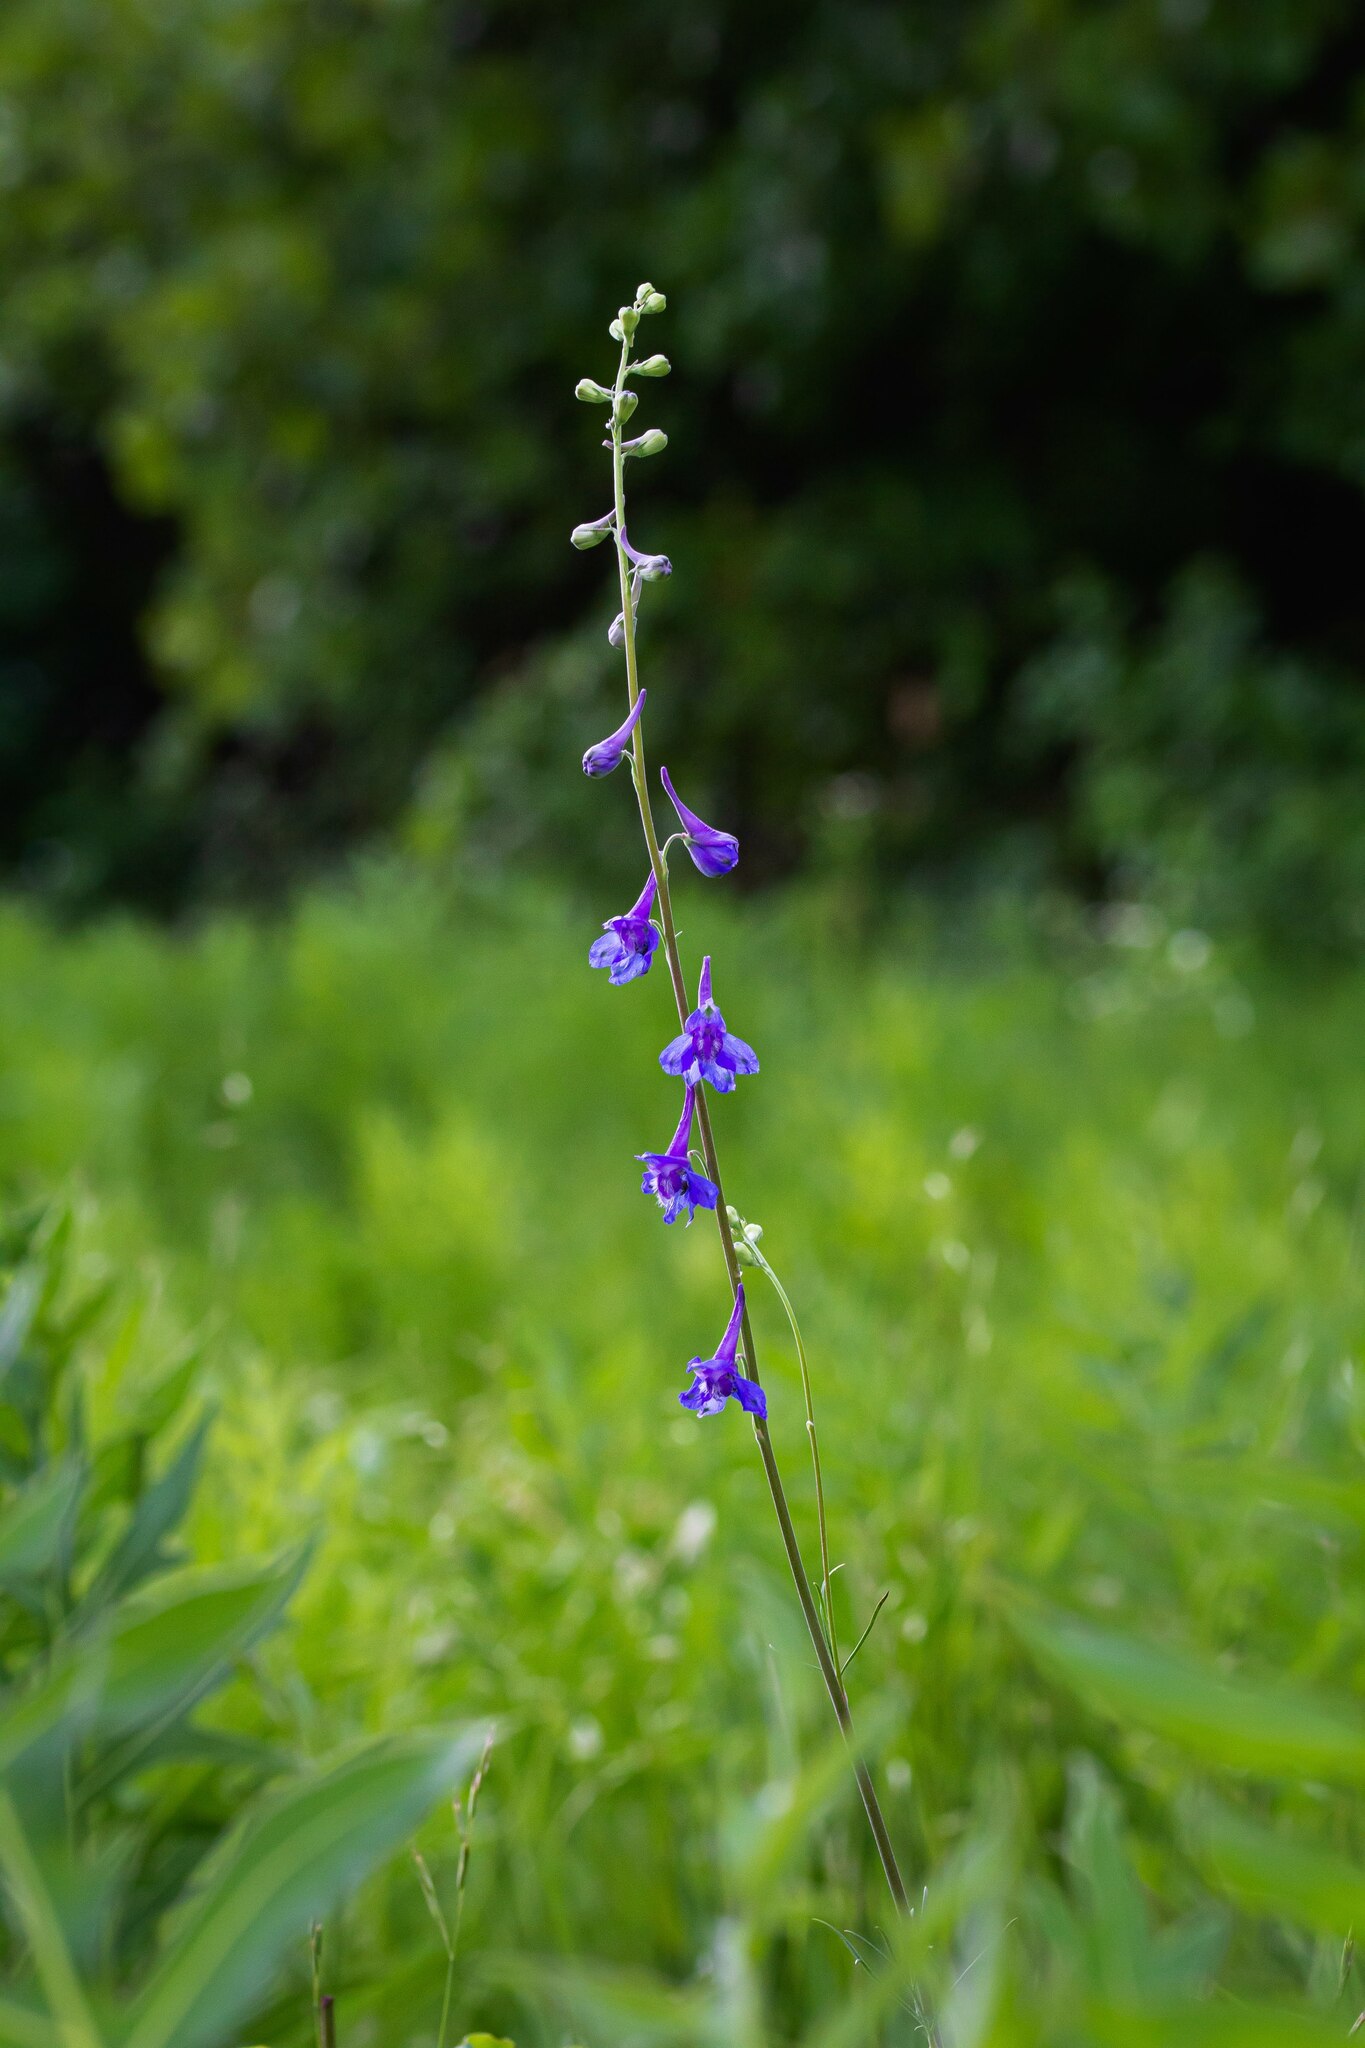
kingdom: Plantae
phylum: Tracheophyta
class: Magnoliopsida
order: Ranunculales
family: Ranunculaceae
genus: Delphinium
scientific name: Delphinium carolinianum
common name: Carolina larkspur
